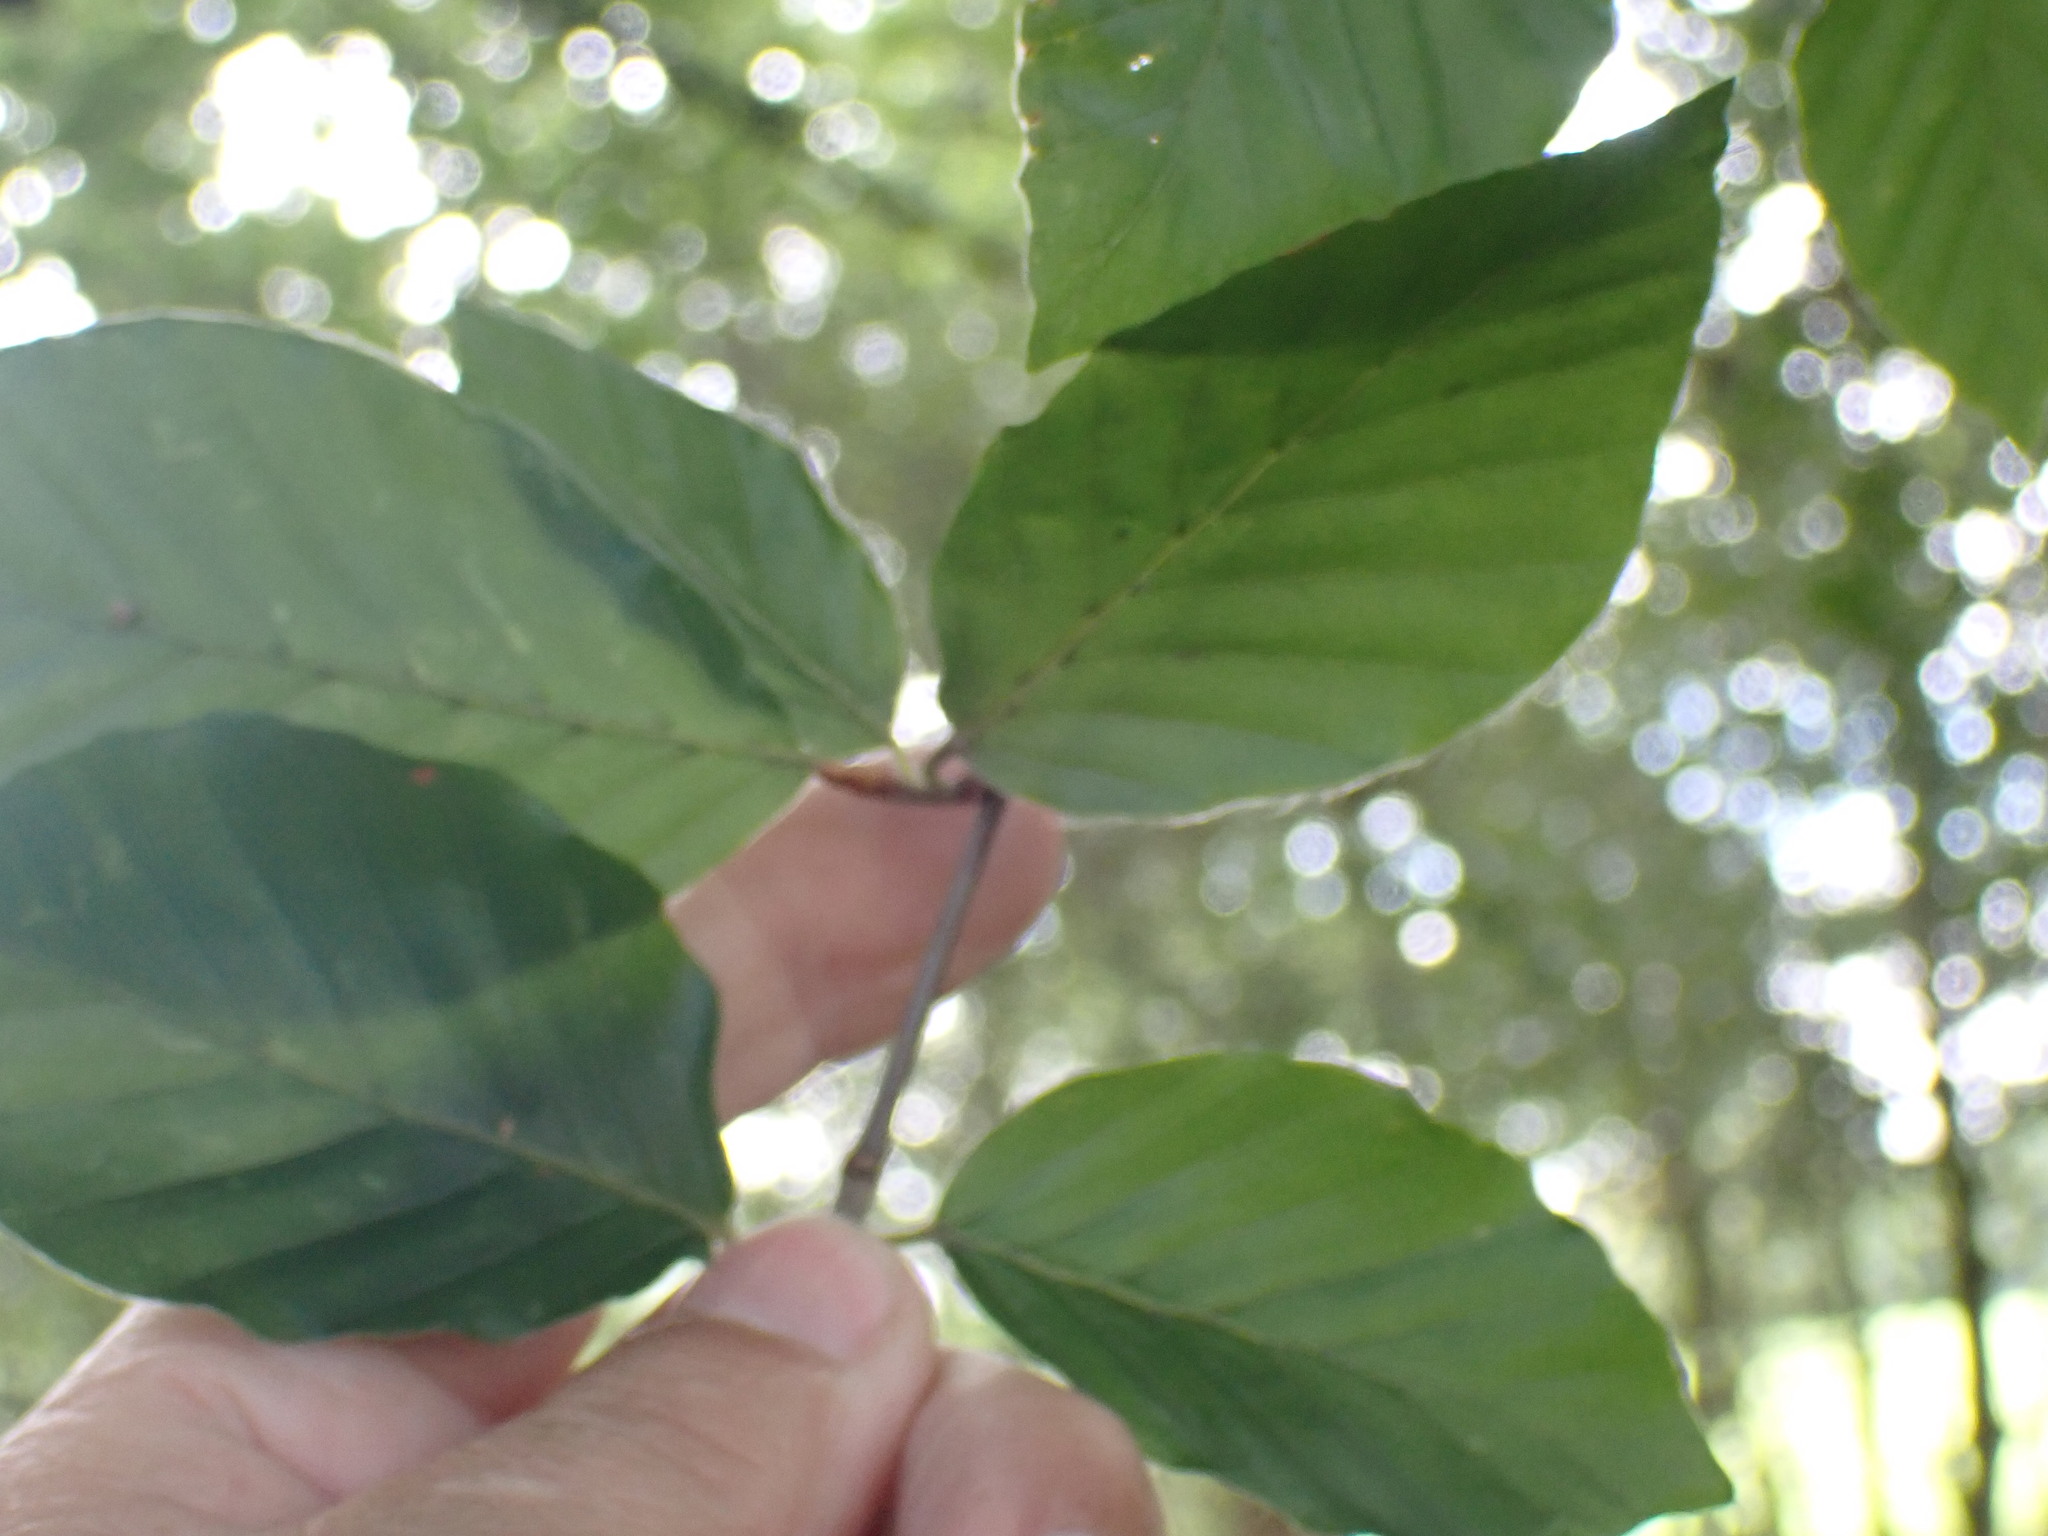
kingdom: Plantae
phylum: Tracheophyta
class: Magnoliopsida
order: Fagales
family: Fagaceae
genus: Fagus
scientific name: Fagus sylvatica
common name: Beech
